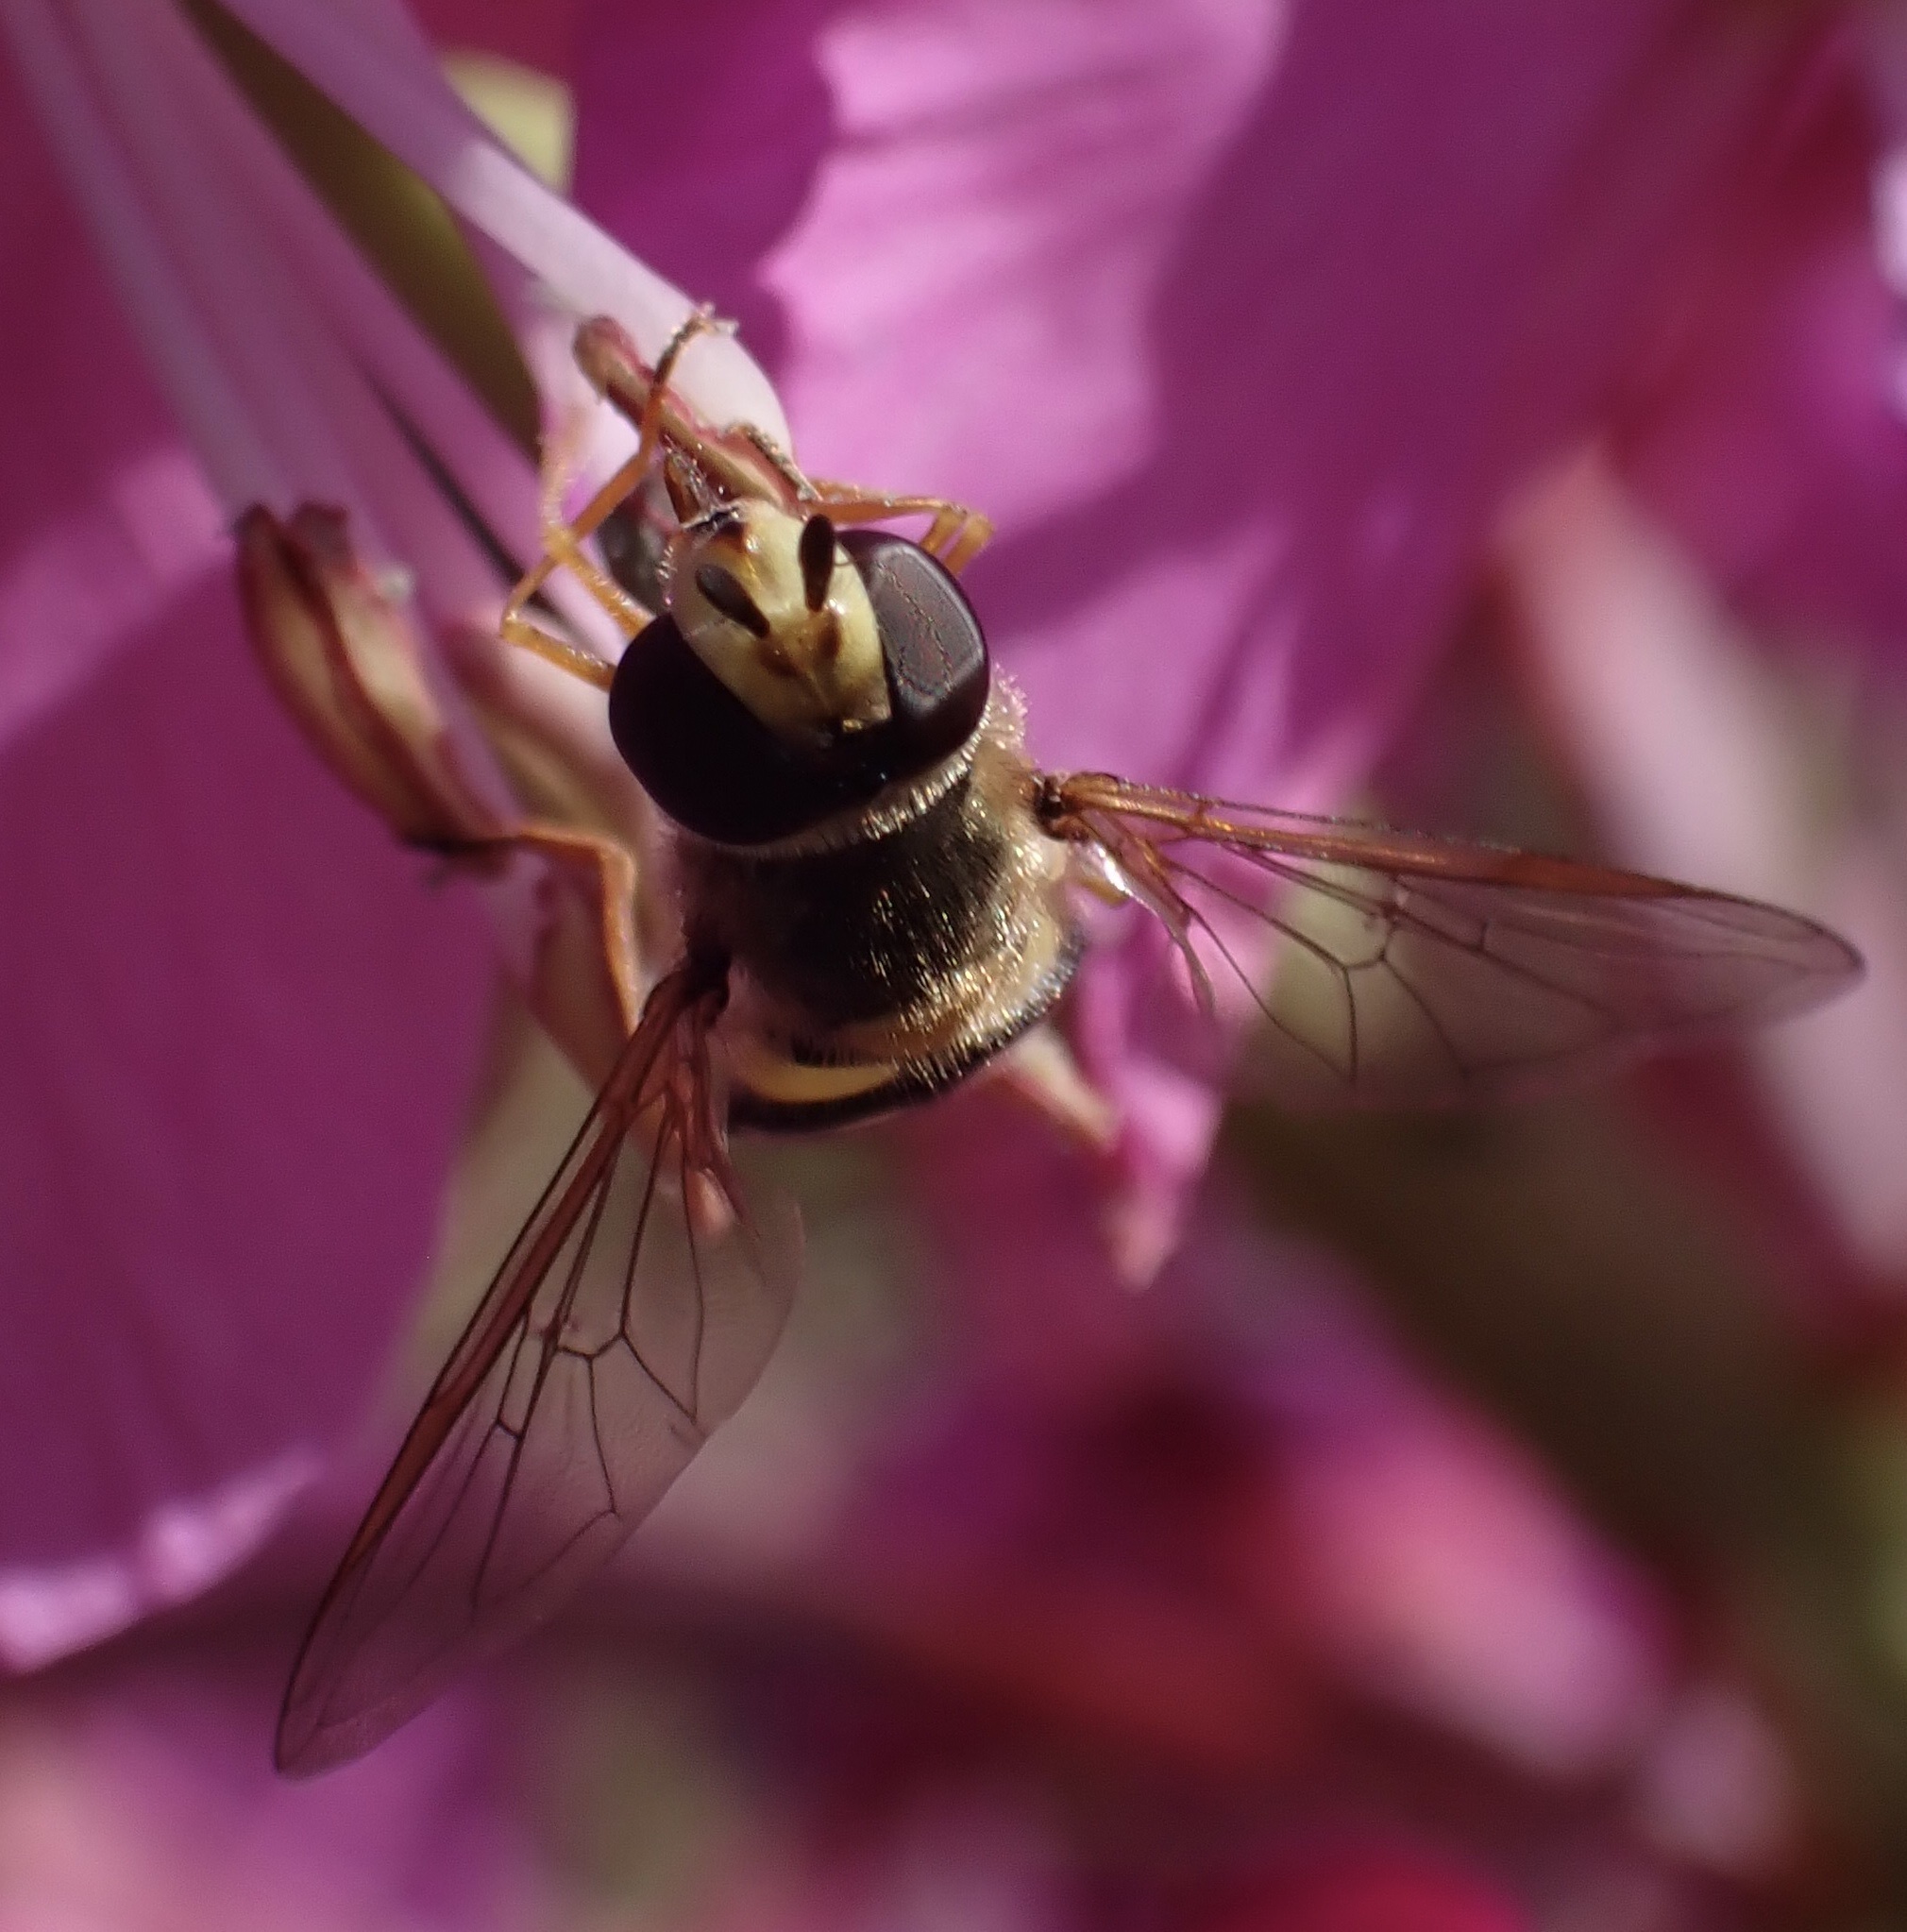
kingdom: Animalia
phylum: Arthropoda
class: Insecta
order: Diptera
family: Syrphidae
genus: Eupeodes
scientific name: Eupeodes corollae
